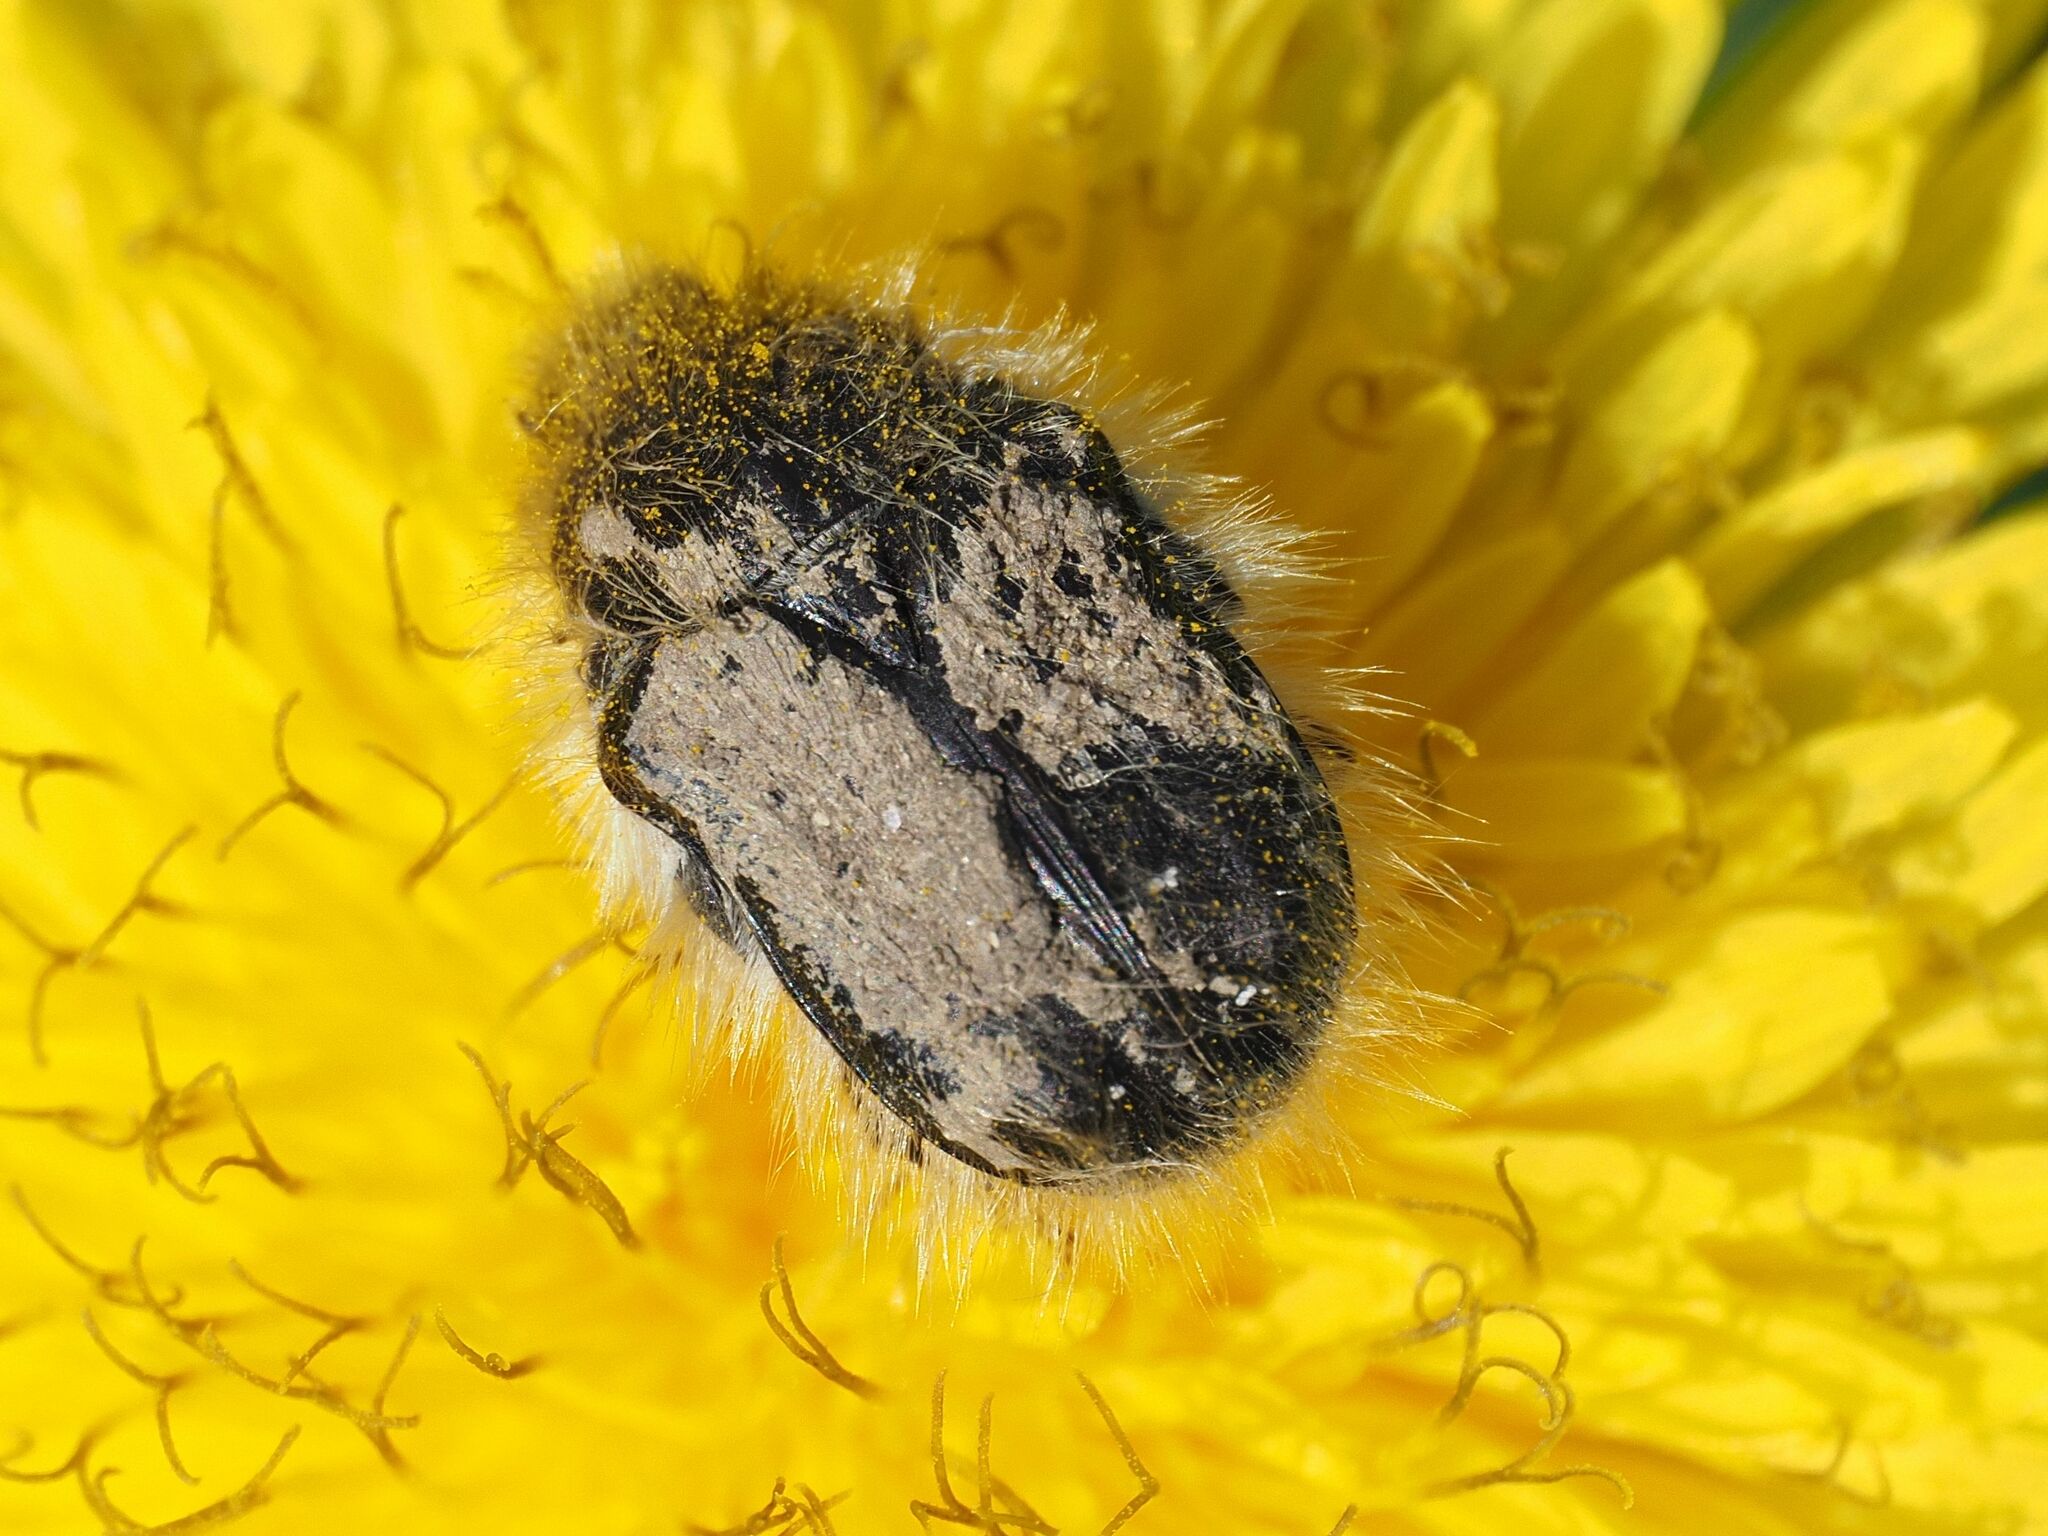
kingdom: Animalia
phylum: Arthropoda
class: Insecta
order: Coleoptera
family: Scarabaeidae
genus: Tropinota
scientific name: Tropinota hirta
